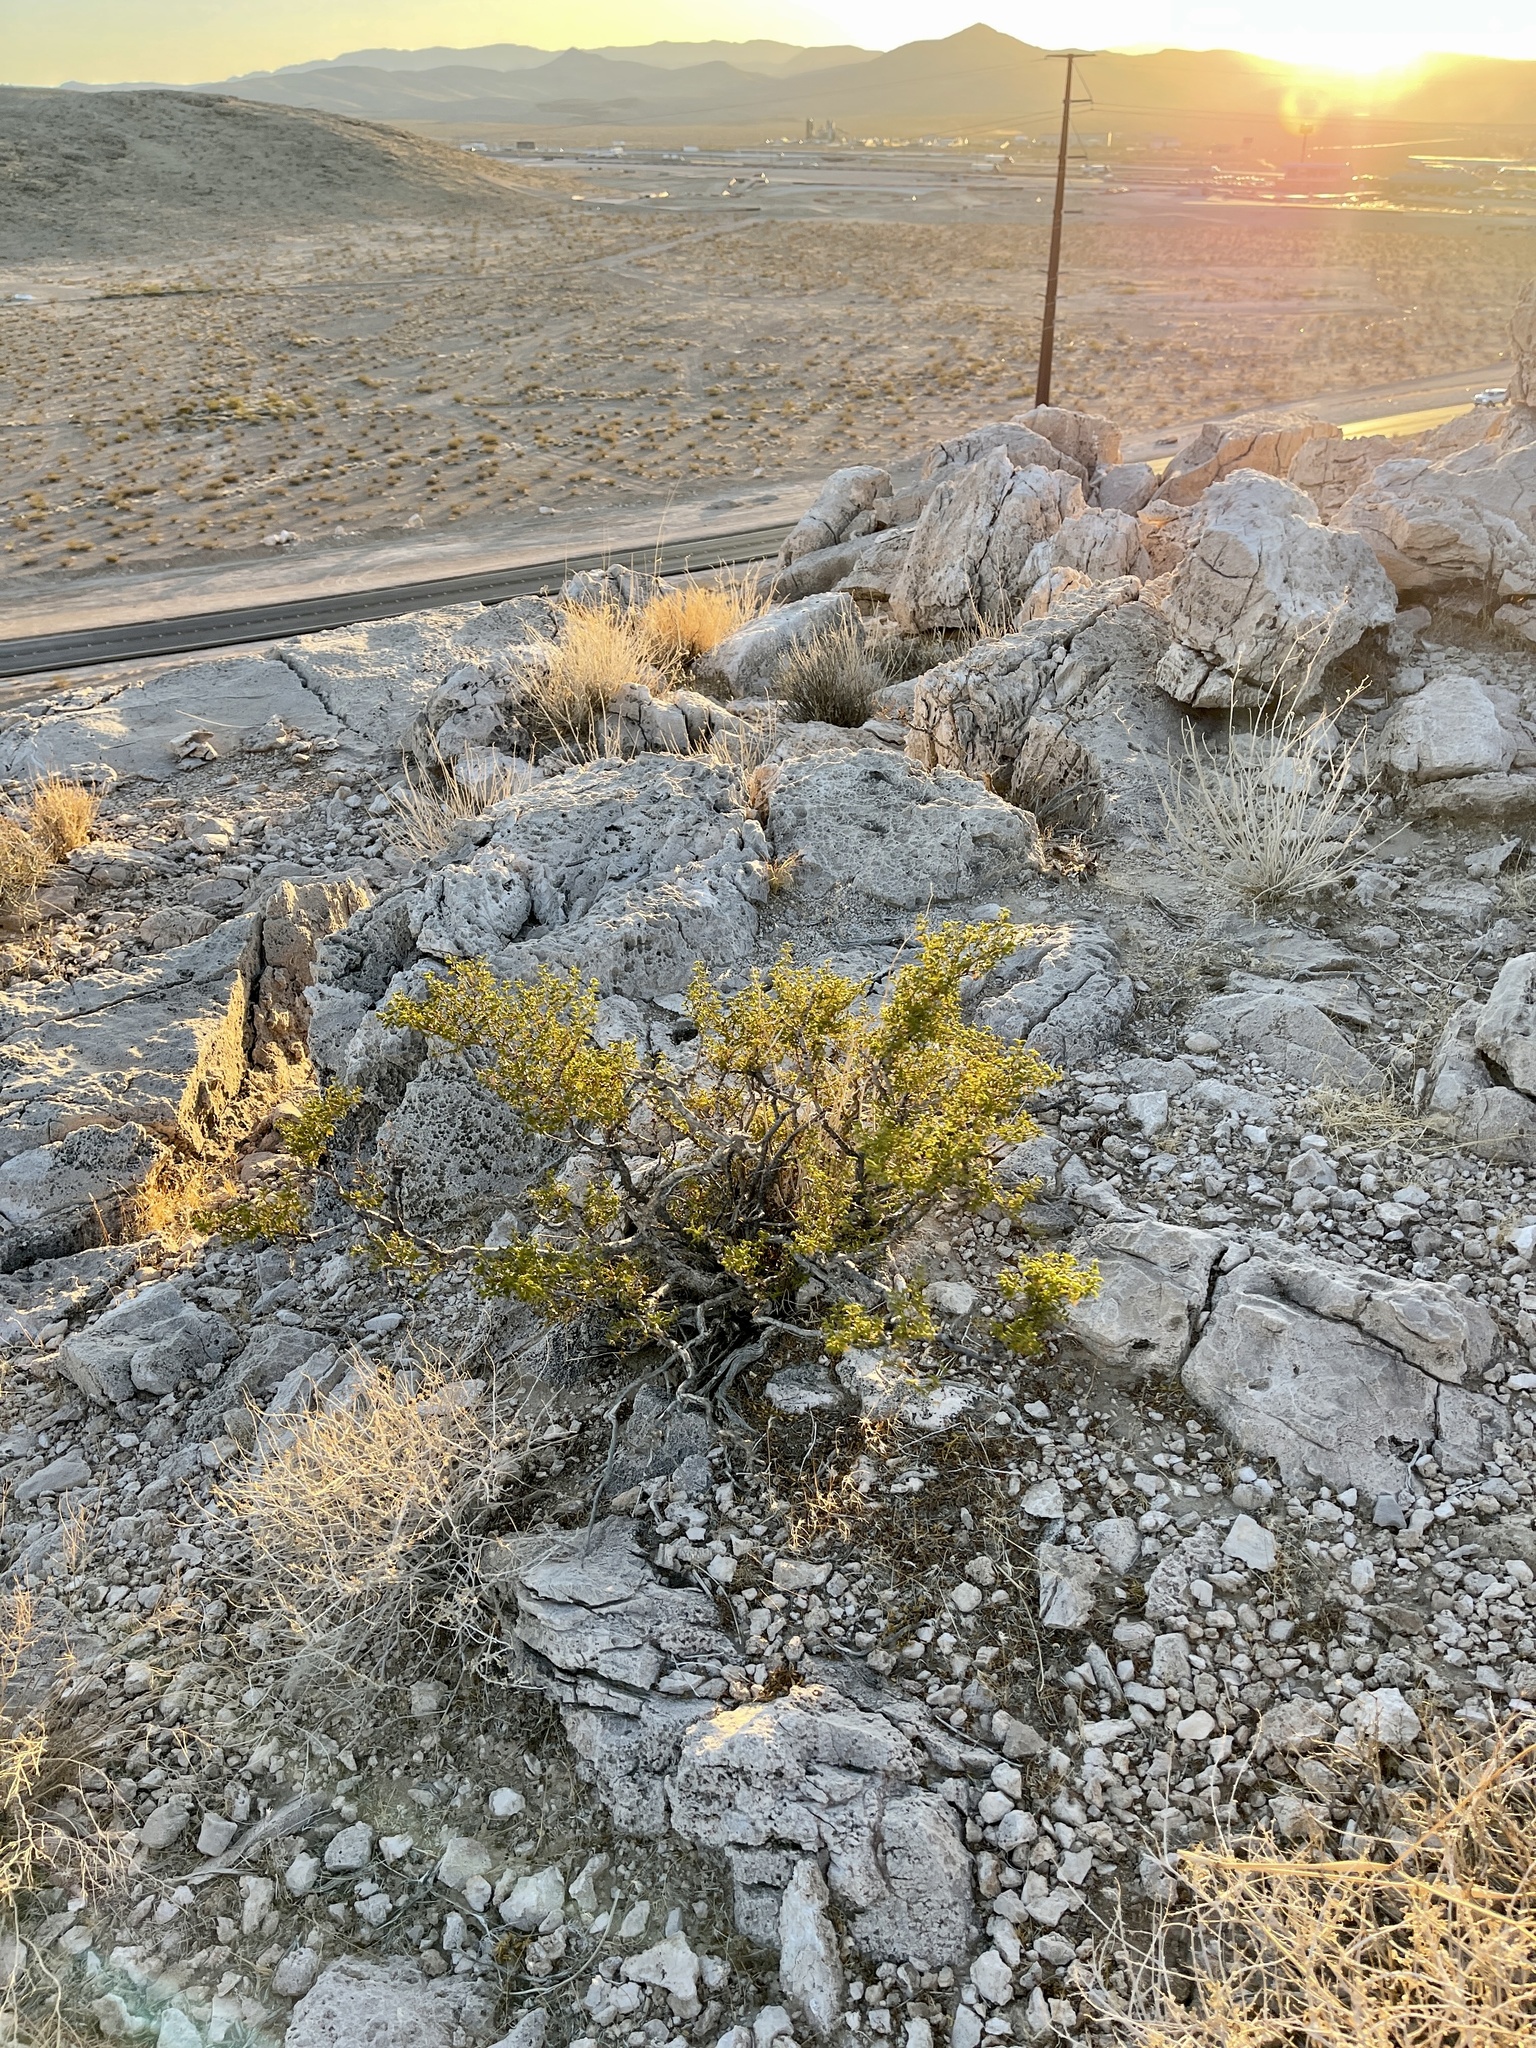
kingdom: Plantae
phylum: Tracheophyta
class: Magnoliopsida
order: Zygophyllales
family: Zygophyllaceae
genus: Larrea
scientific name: Larrea tridentata
